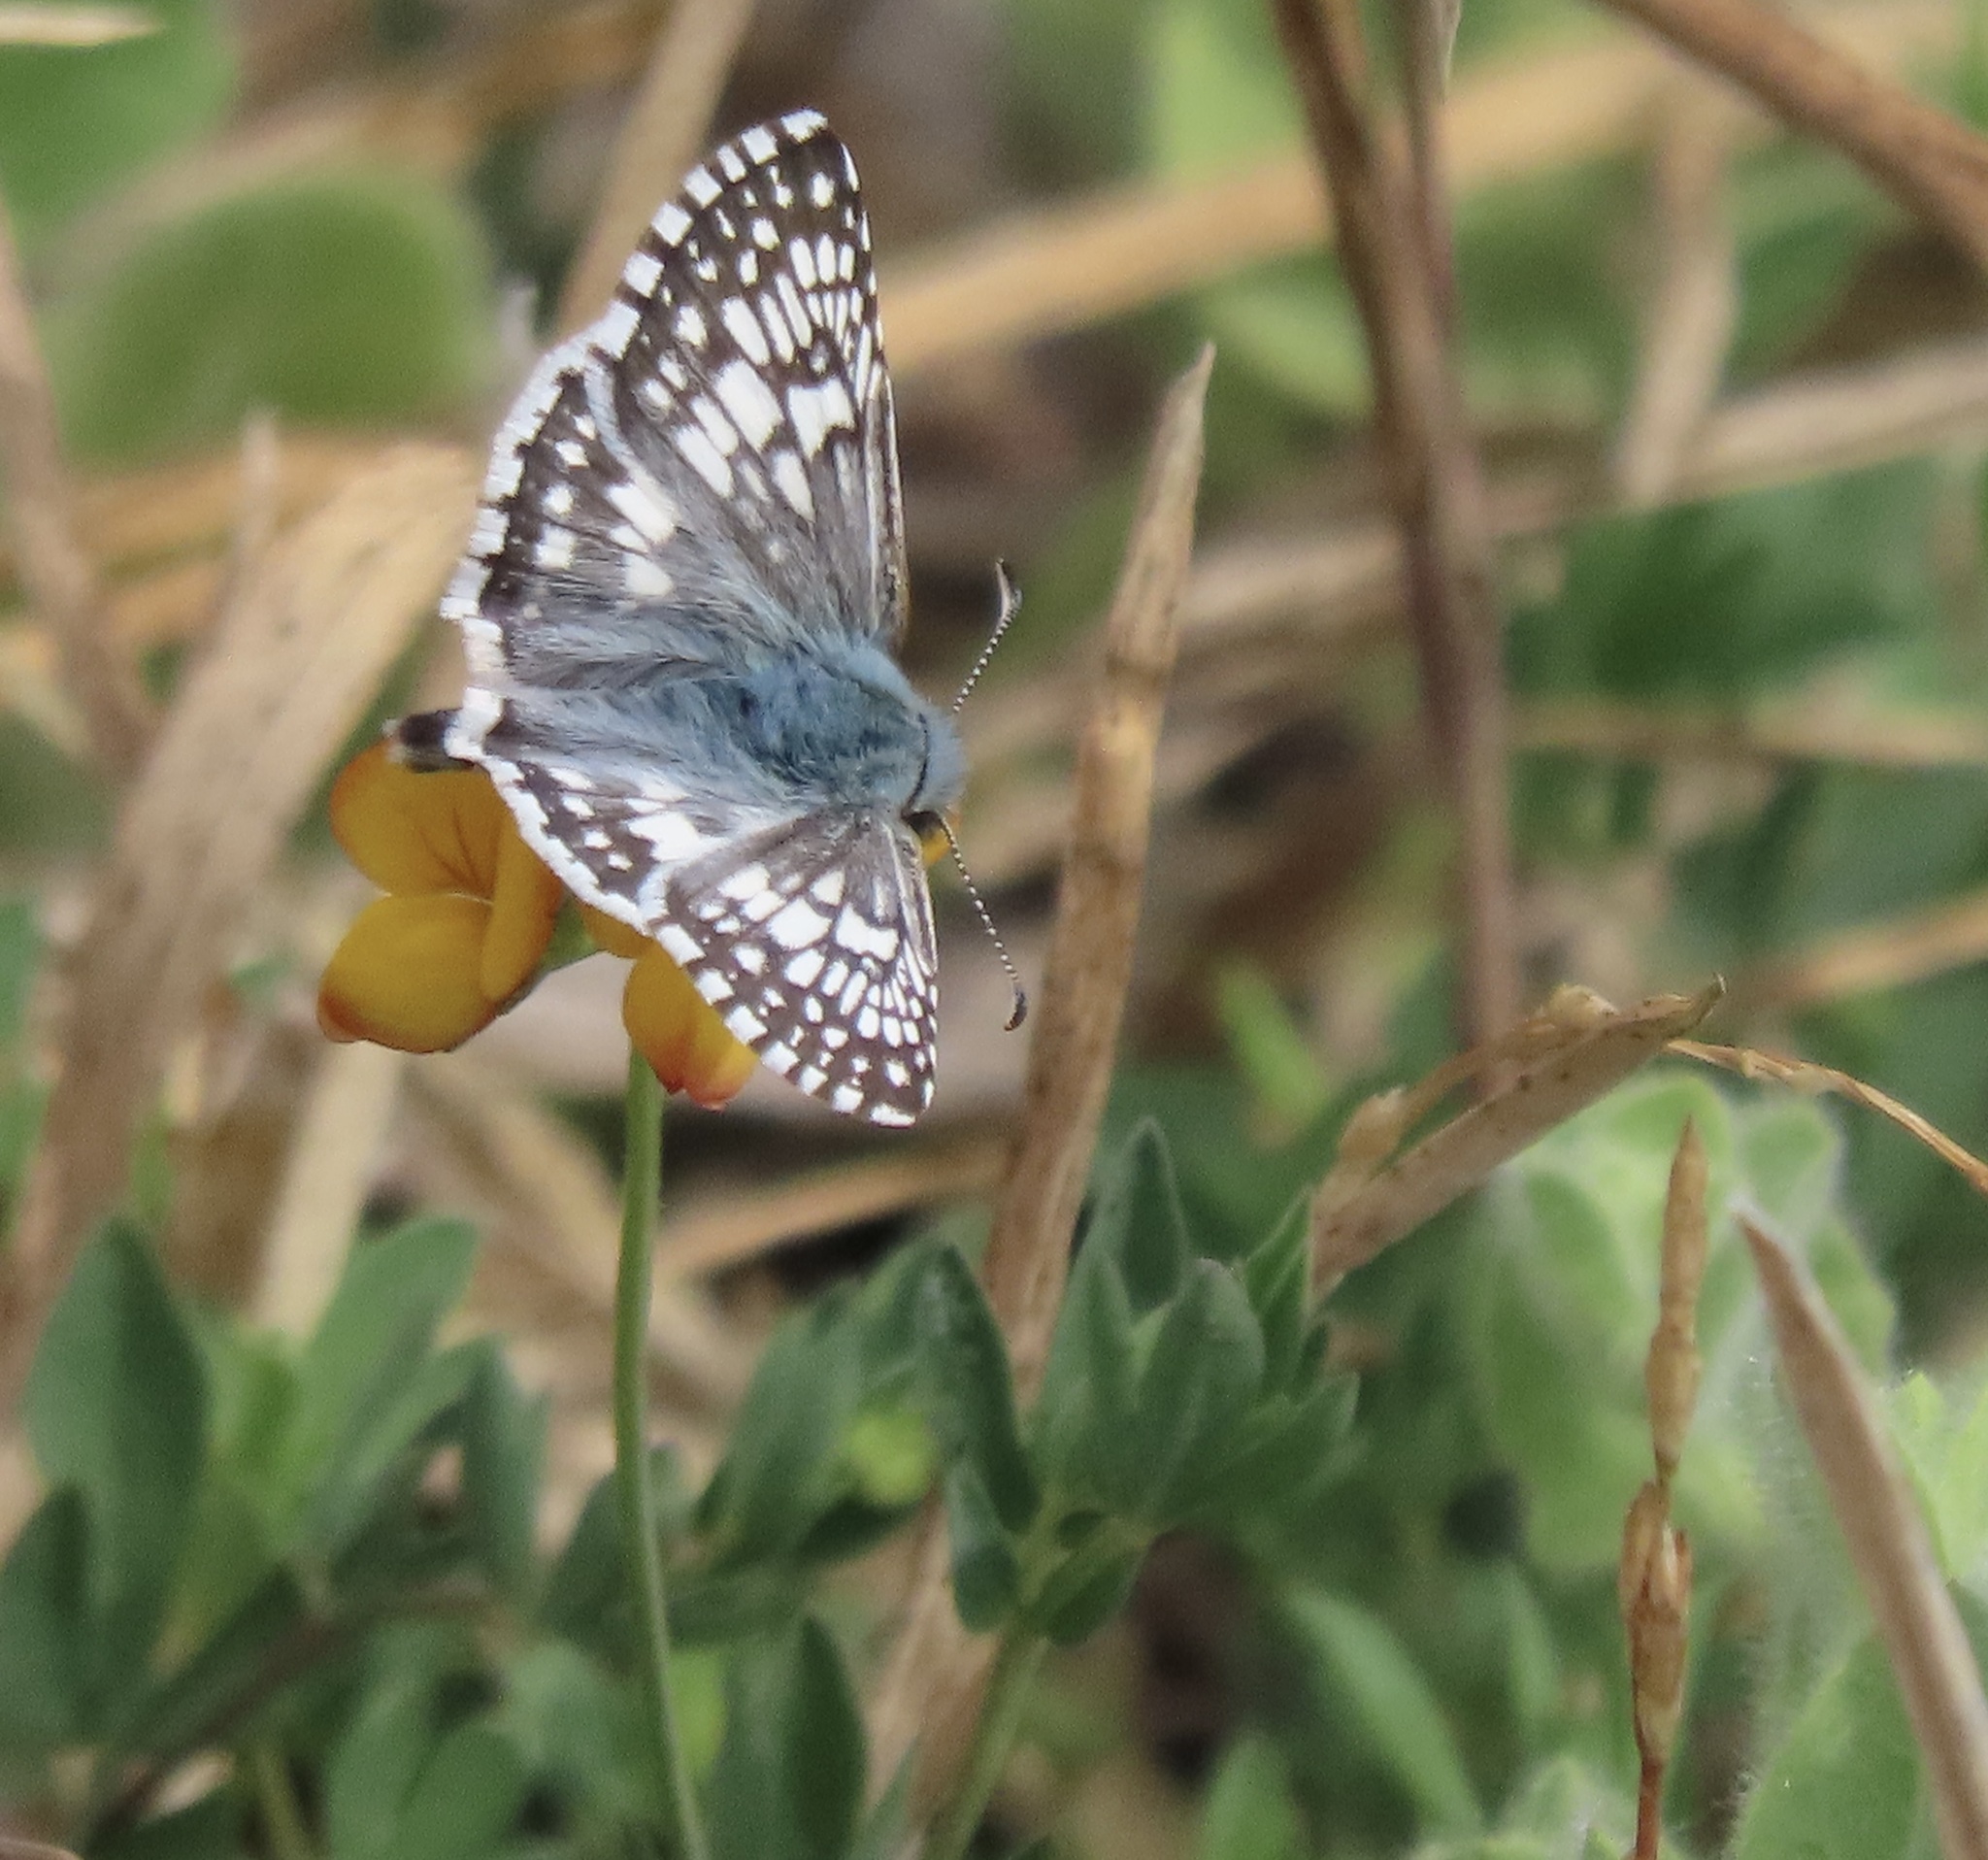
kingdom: Animalia
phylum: Arthropoda
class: Insecta
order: Lepidoptera
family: Hesperiidae
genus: Burnsius
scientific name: Burnsius communis
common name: Common checkered-skipper
